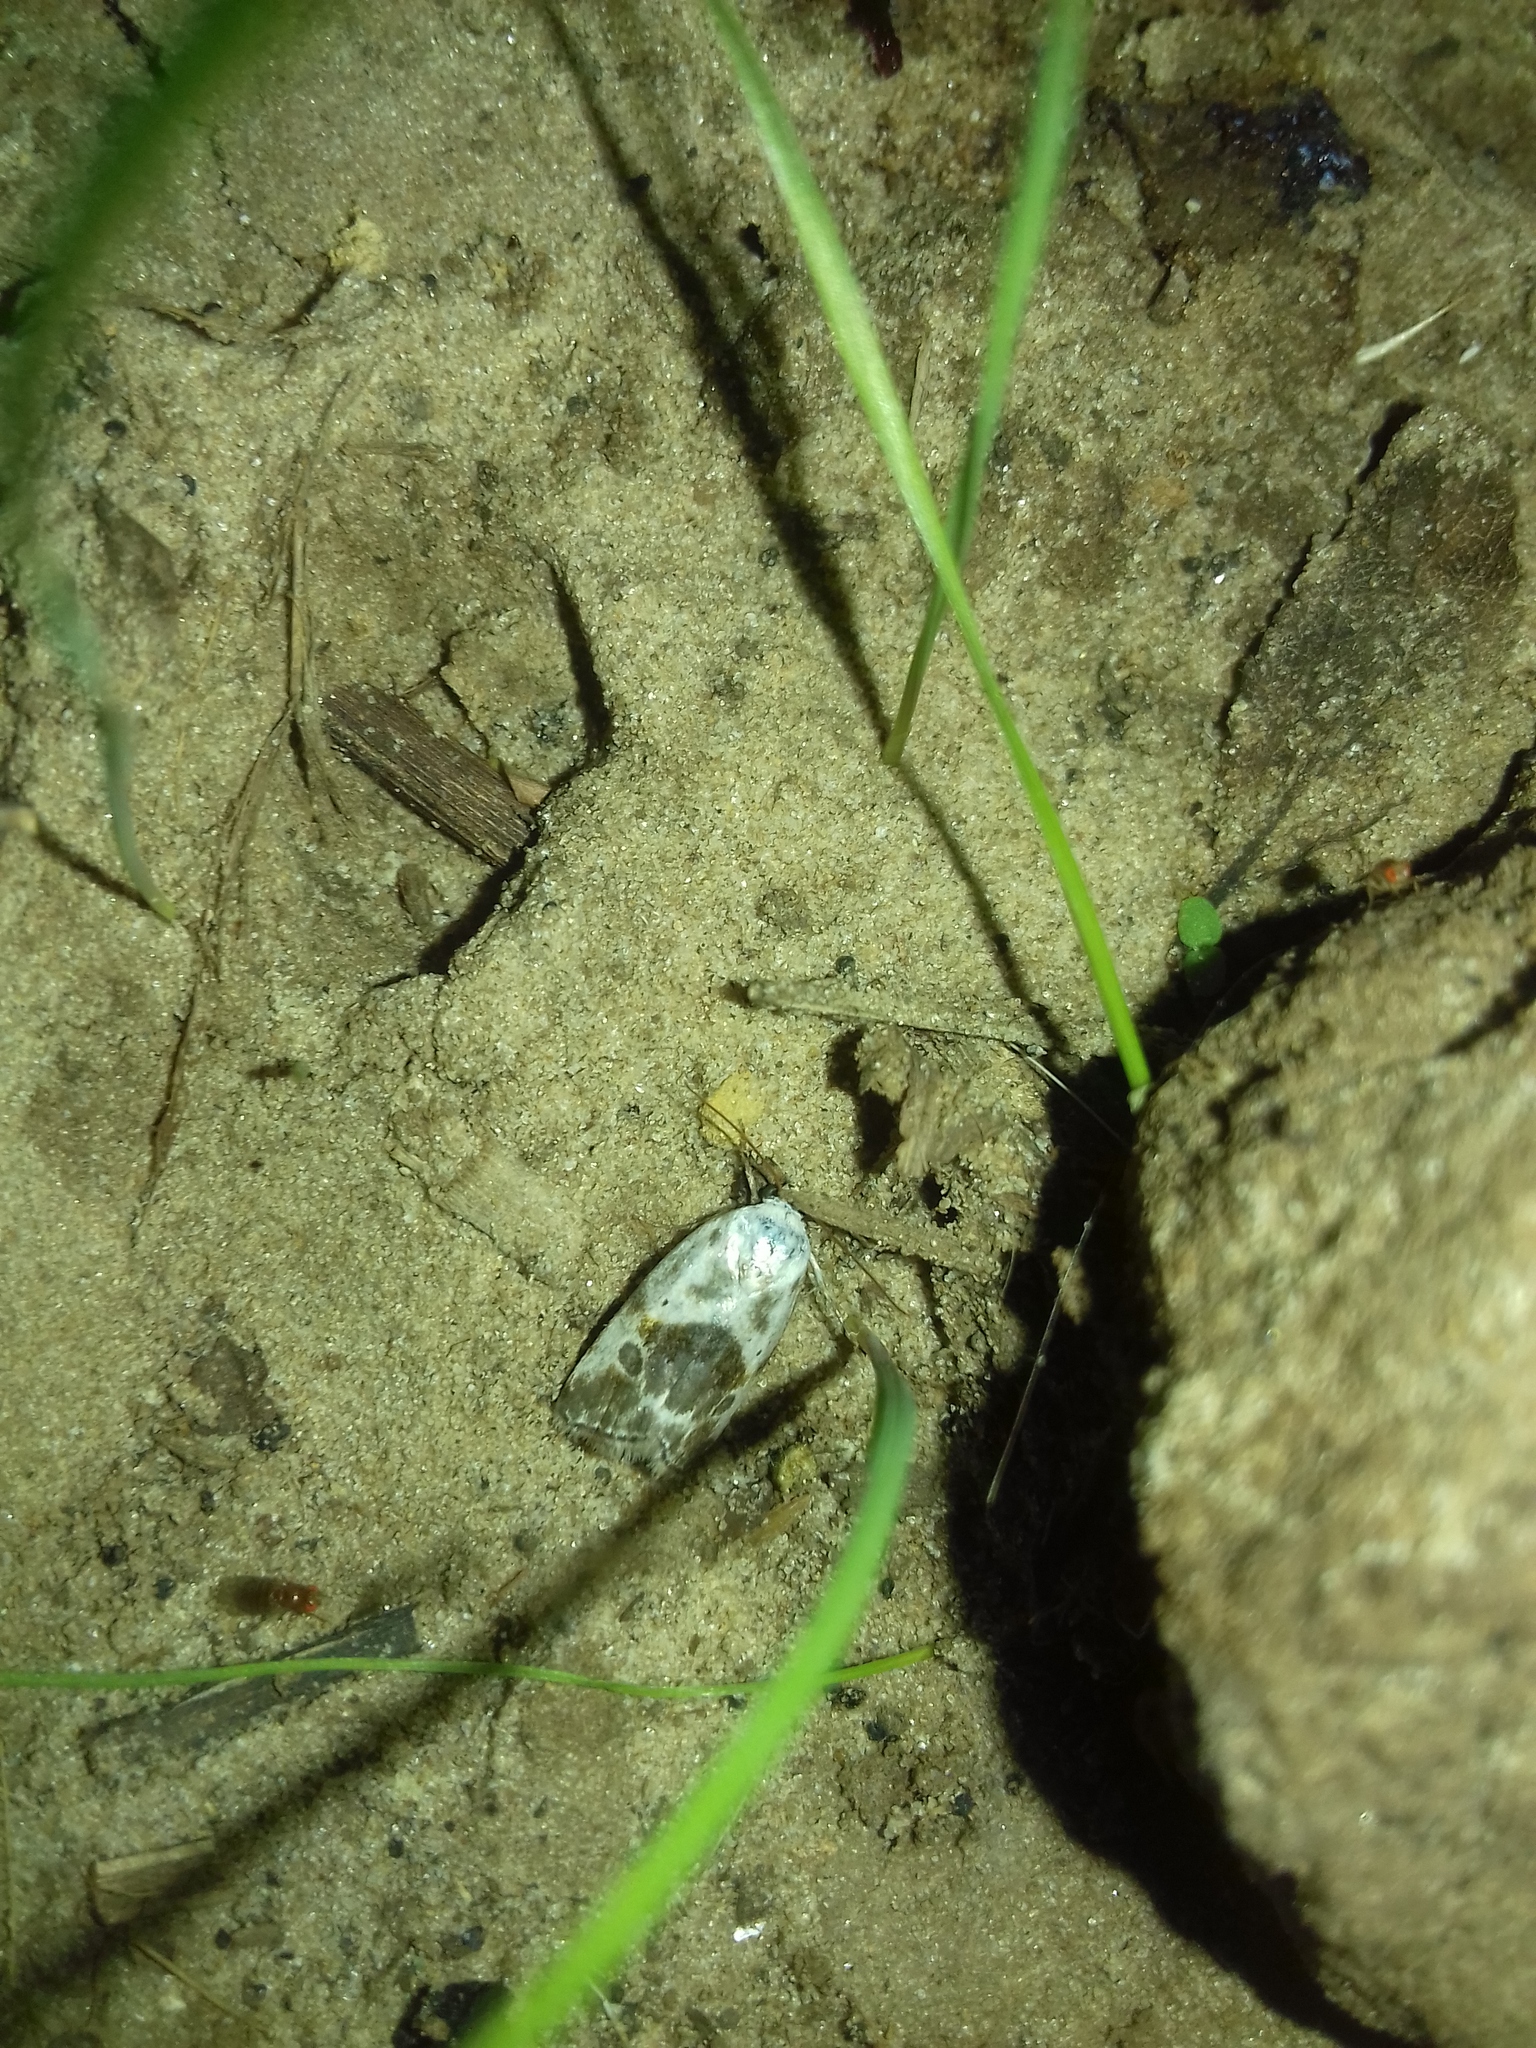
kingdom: Animalia
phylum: Arthropoda
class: Insecta
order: Lepidoptera
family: Noctuidae
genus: Acontia
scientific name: Acontia candefacta
